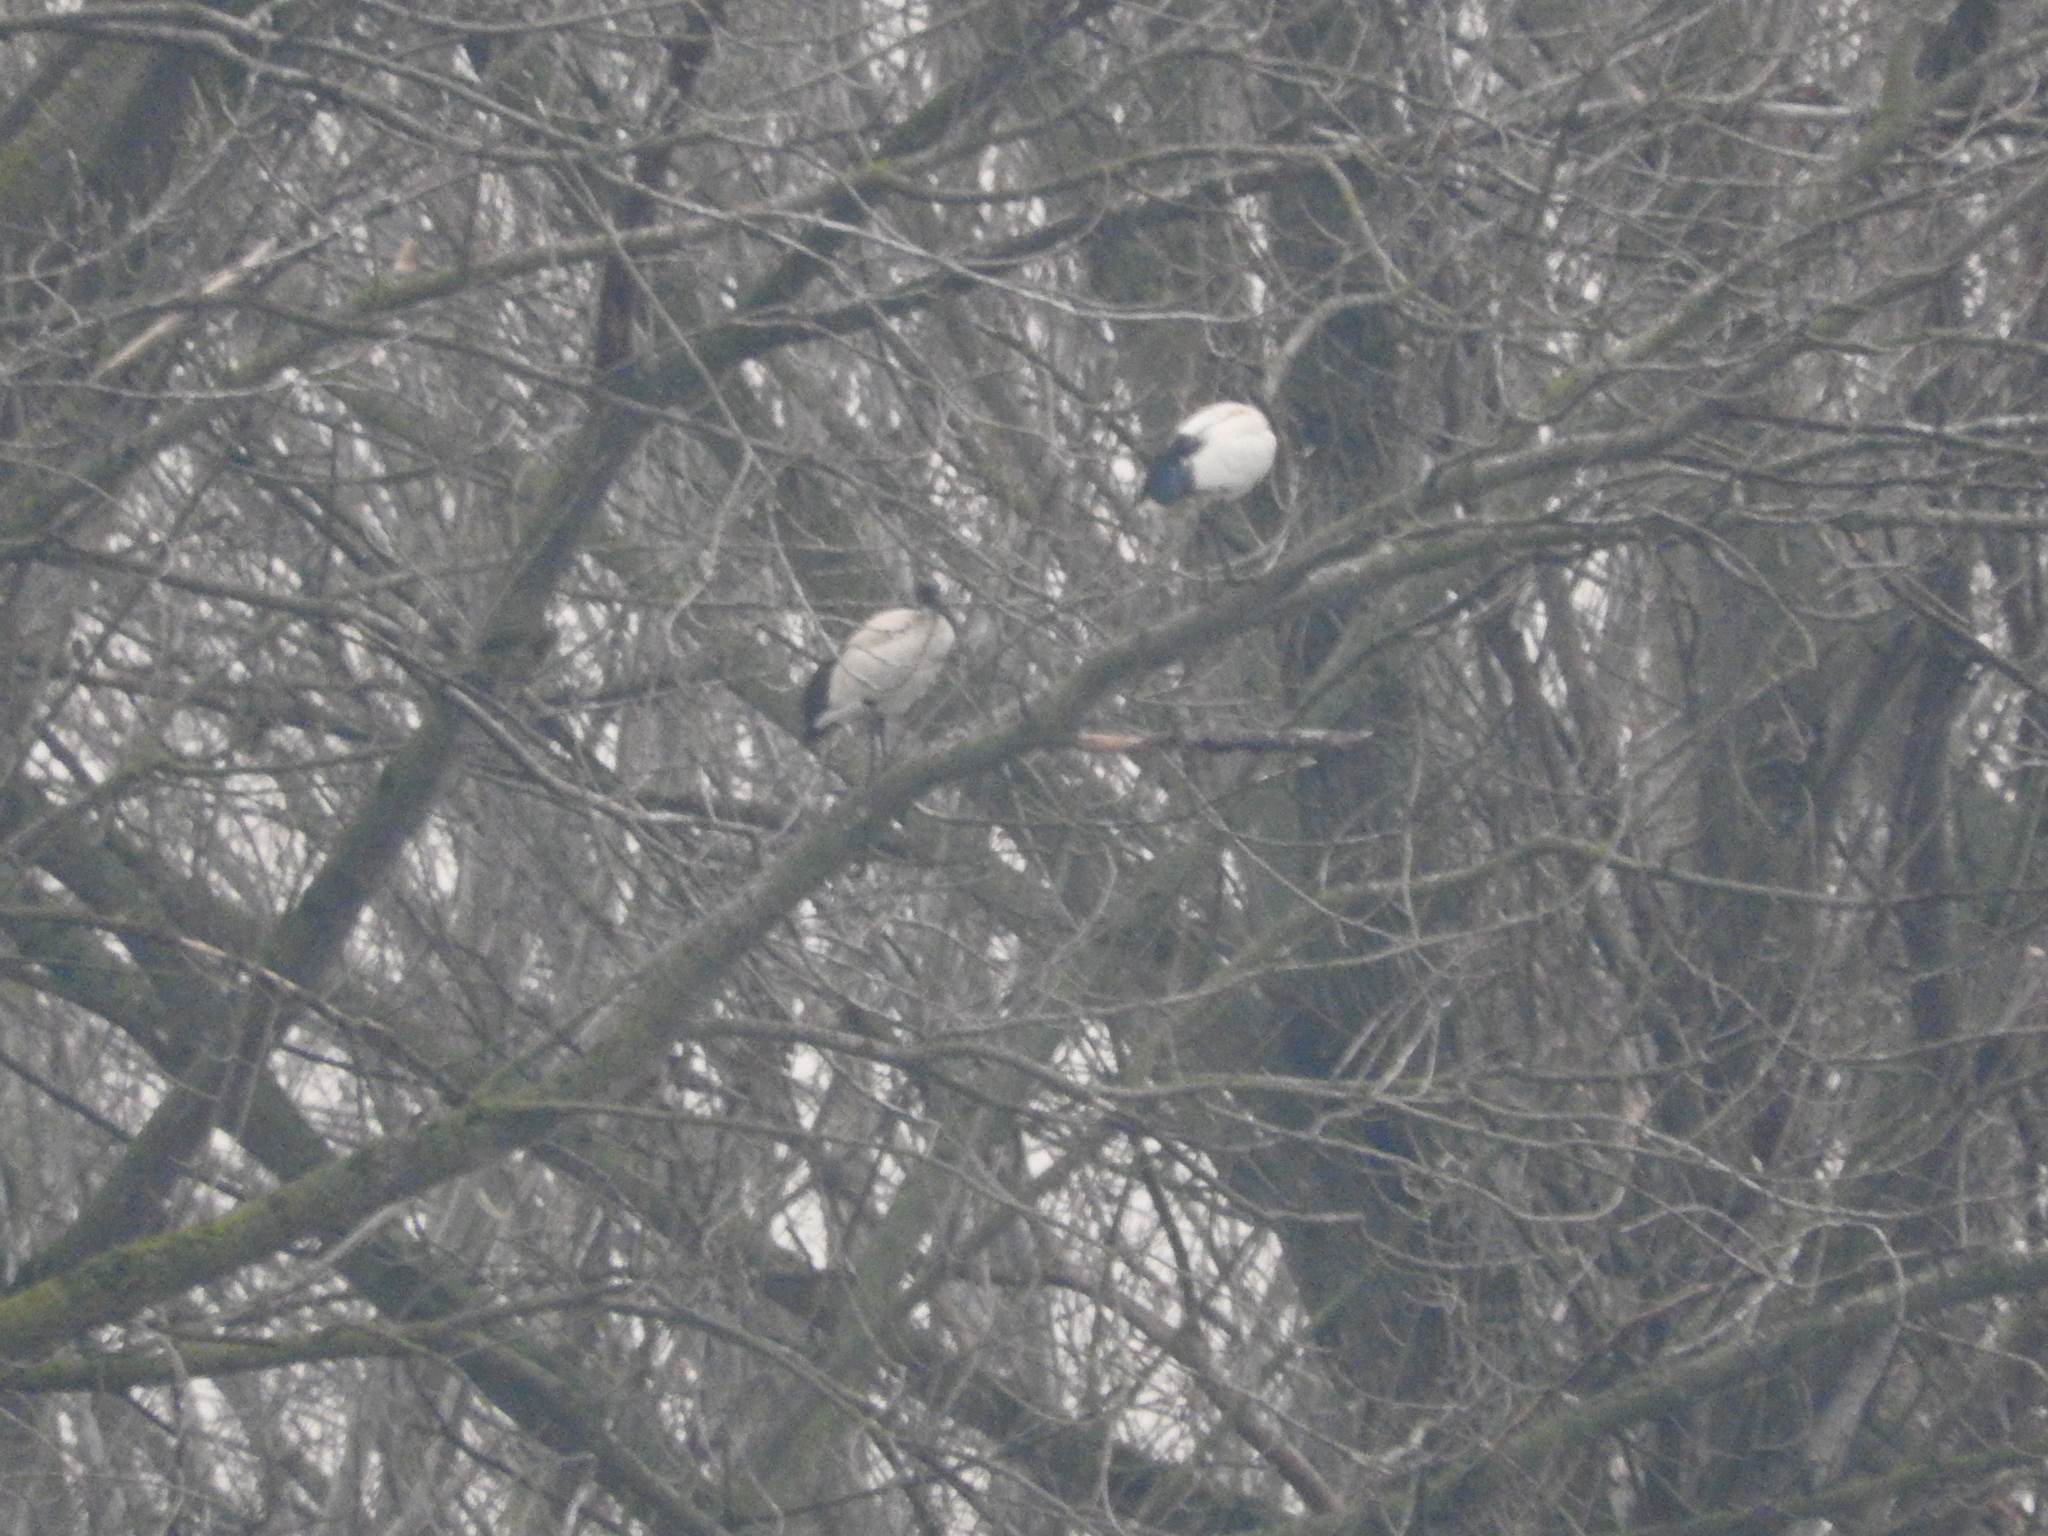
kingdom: Animalia
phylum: Chordata
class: Aves
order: Pelecaniformes
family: Threskiornithidae
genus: Threskiornis
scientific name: Threskiornis aethiopicus
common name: Sacred ibis
